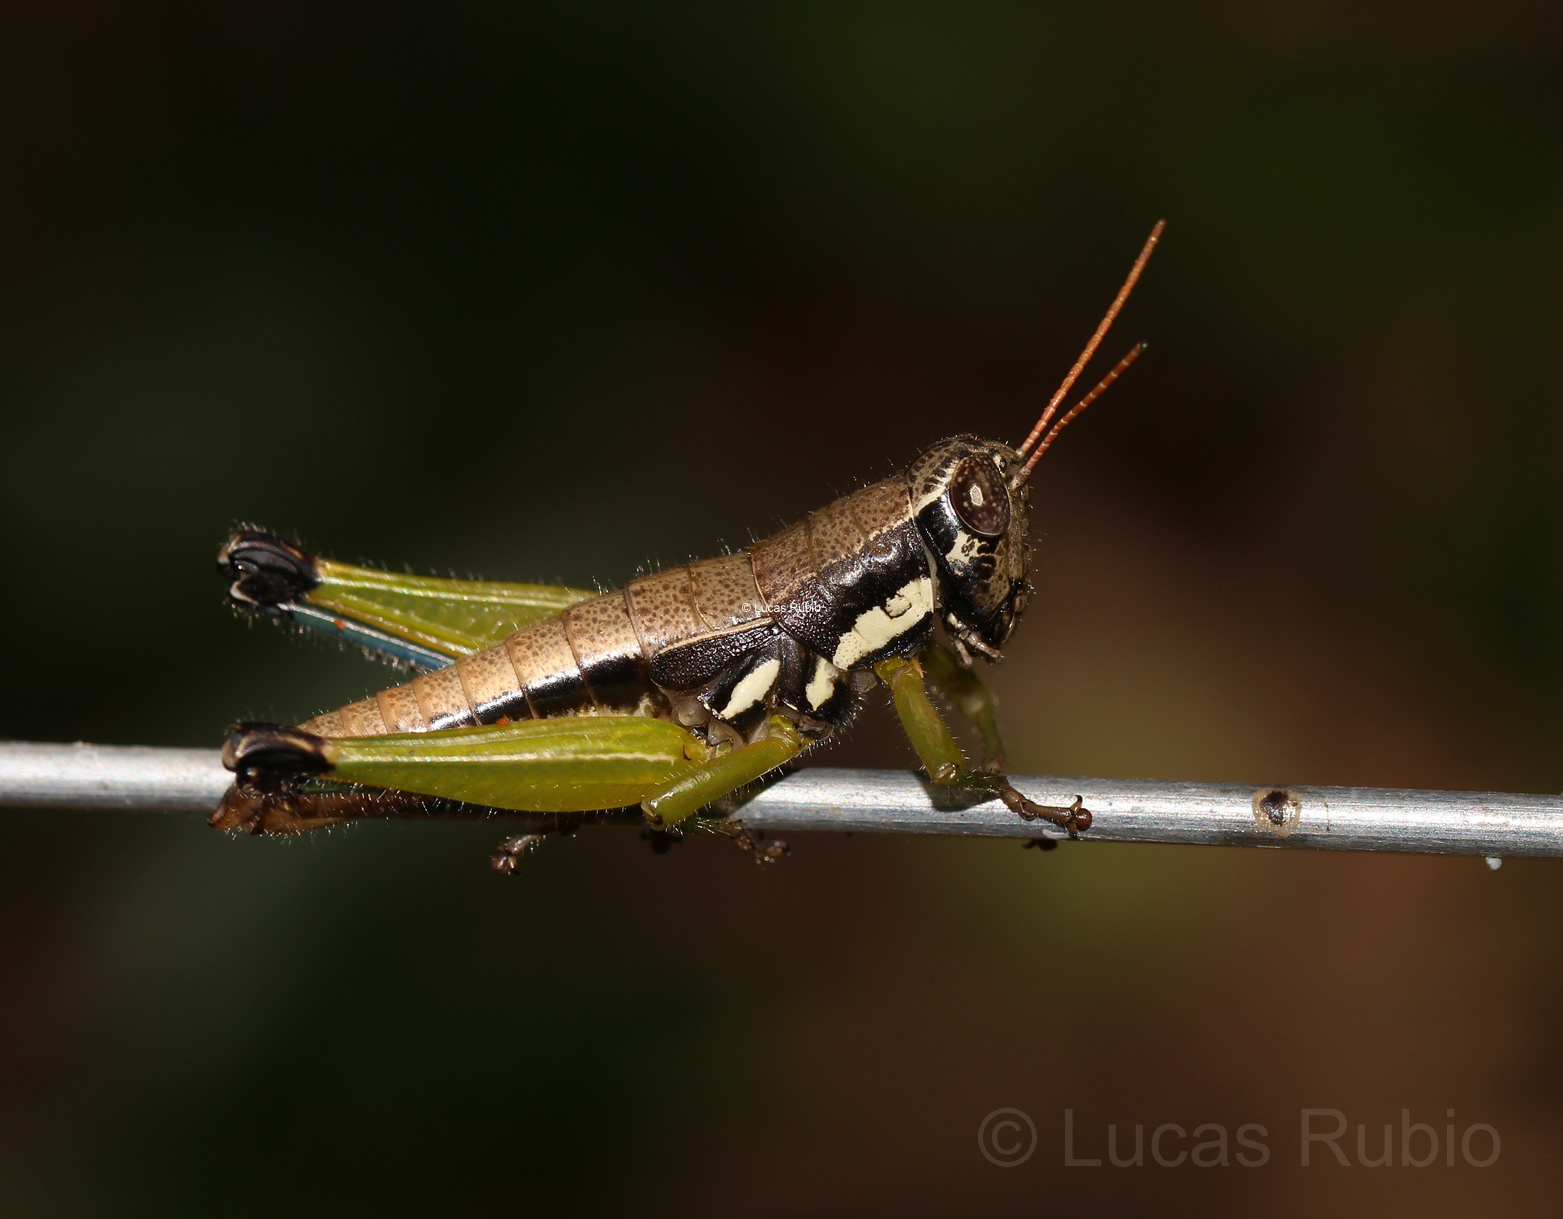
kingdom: Animalia
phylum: Arthropoda
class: Insecta
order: Orthoptera
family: Acrididae
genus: Pseudoscopas
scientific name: Pseudoscopas nigrigena
